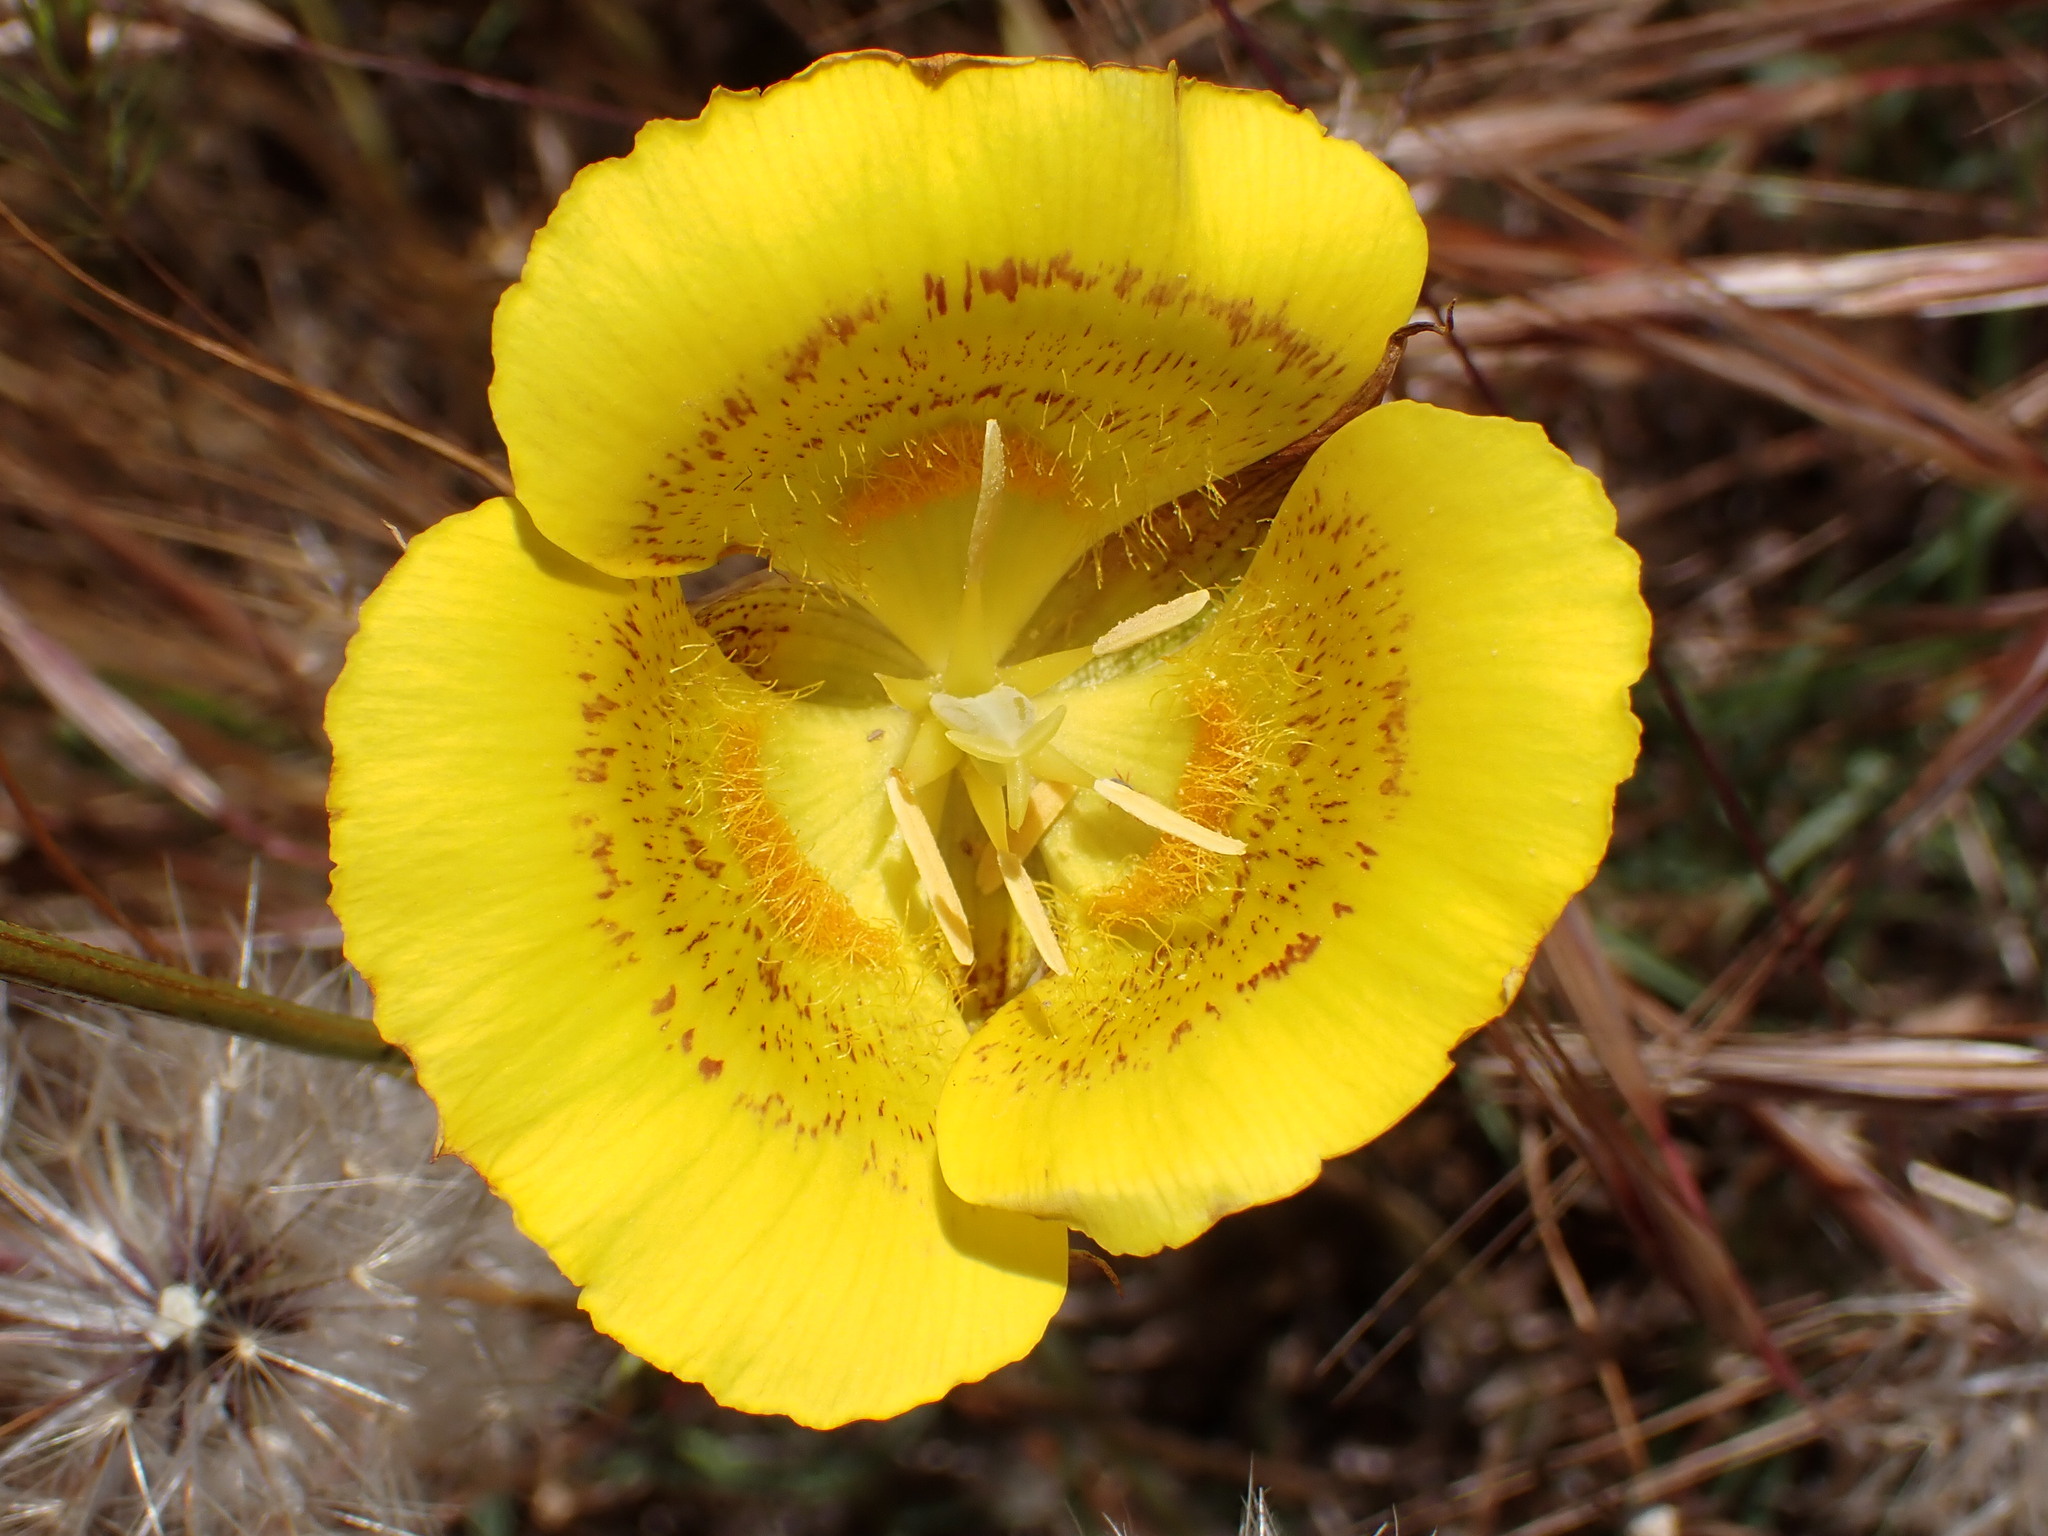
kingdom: Plantae
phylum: Tracheophyta
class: Liliopsida
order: Liliales
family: Liliaceae
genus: Calochortus
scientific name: Calochortus luteus
